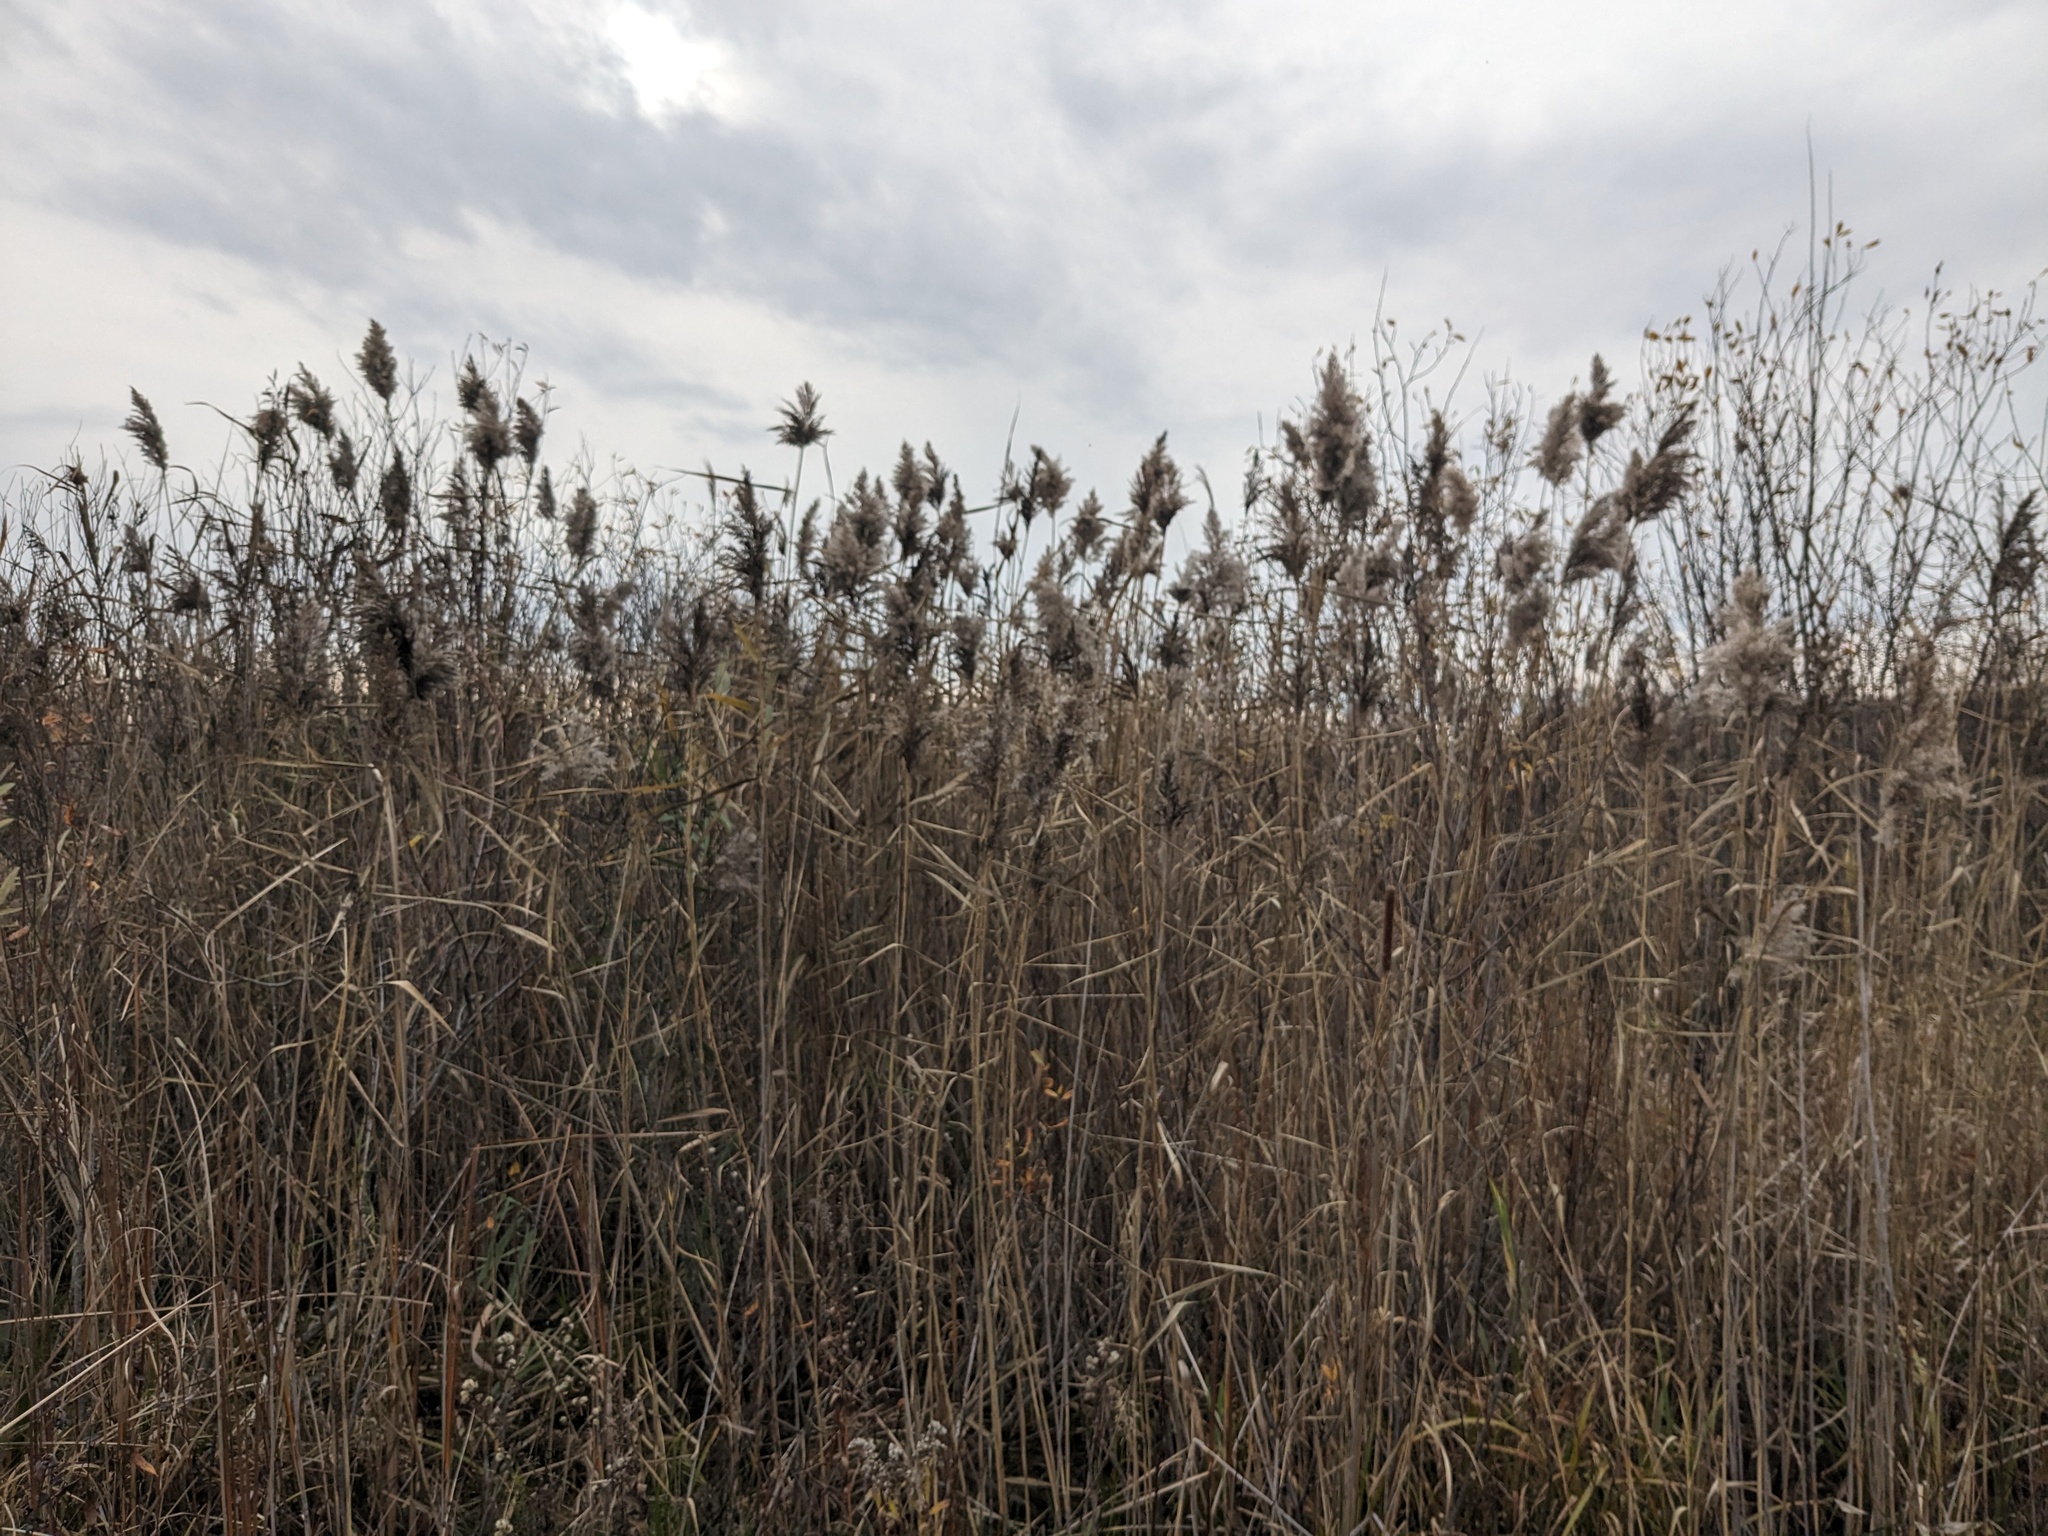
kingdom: Plantae
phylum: Tracheophyta
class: Liliopsida
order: Poales
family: Poaceae
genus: Phragmites
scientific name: Phragmites australis
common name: Common reed
